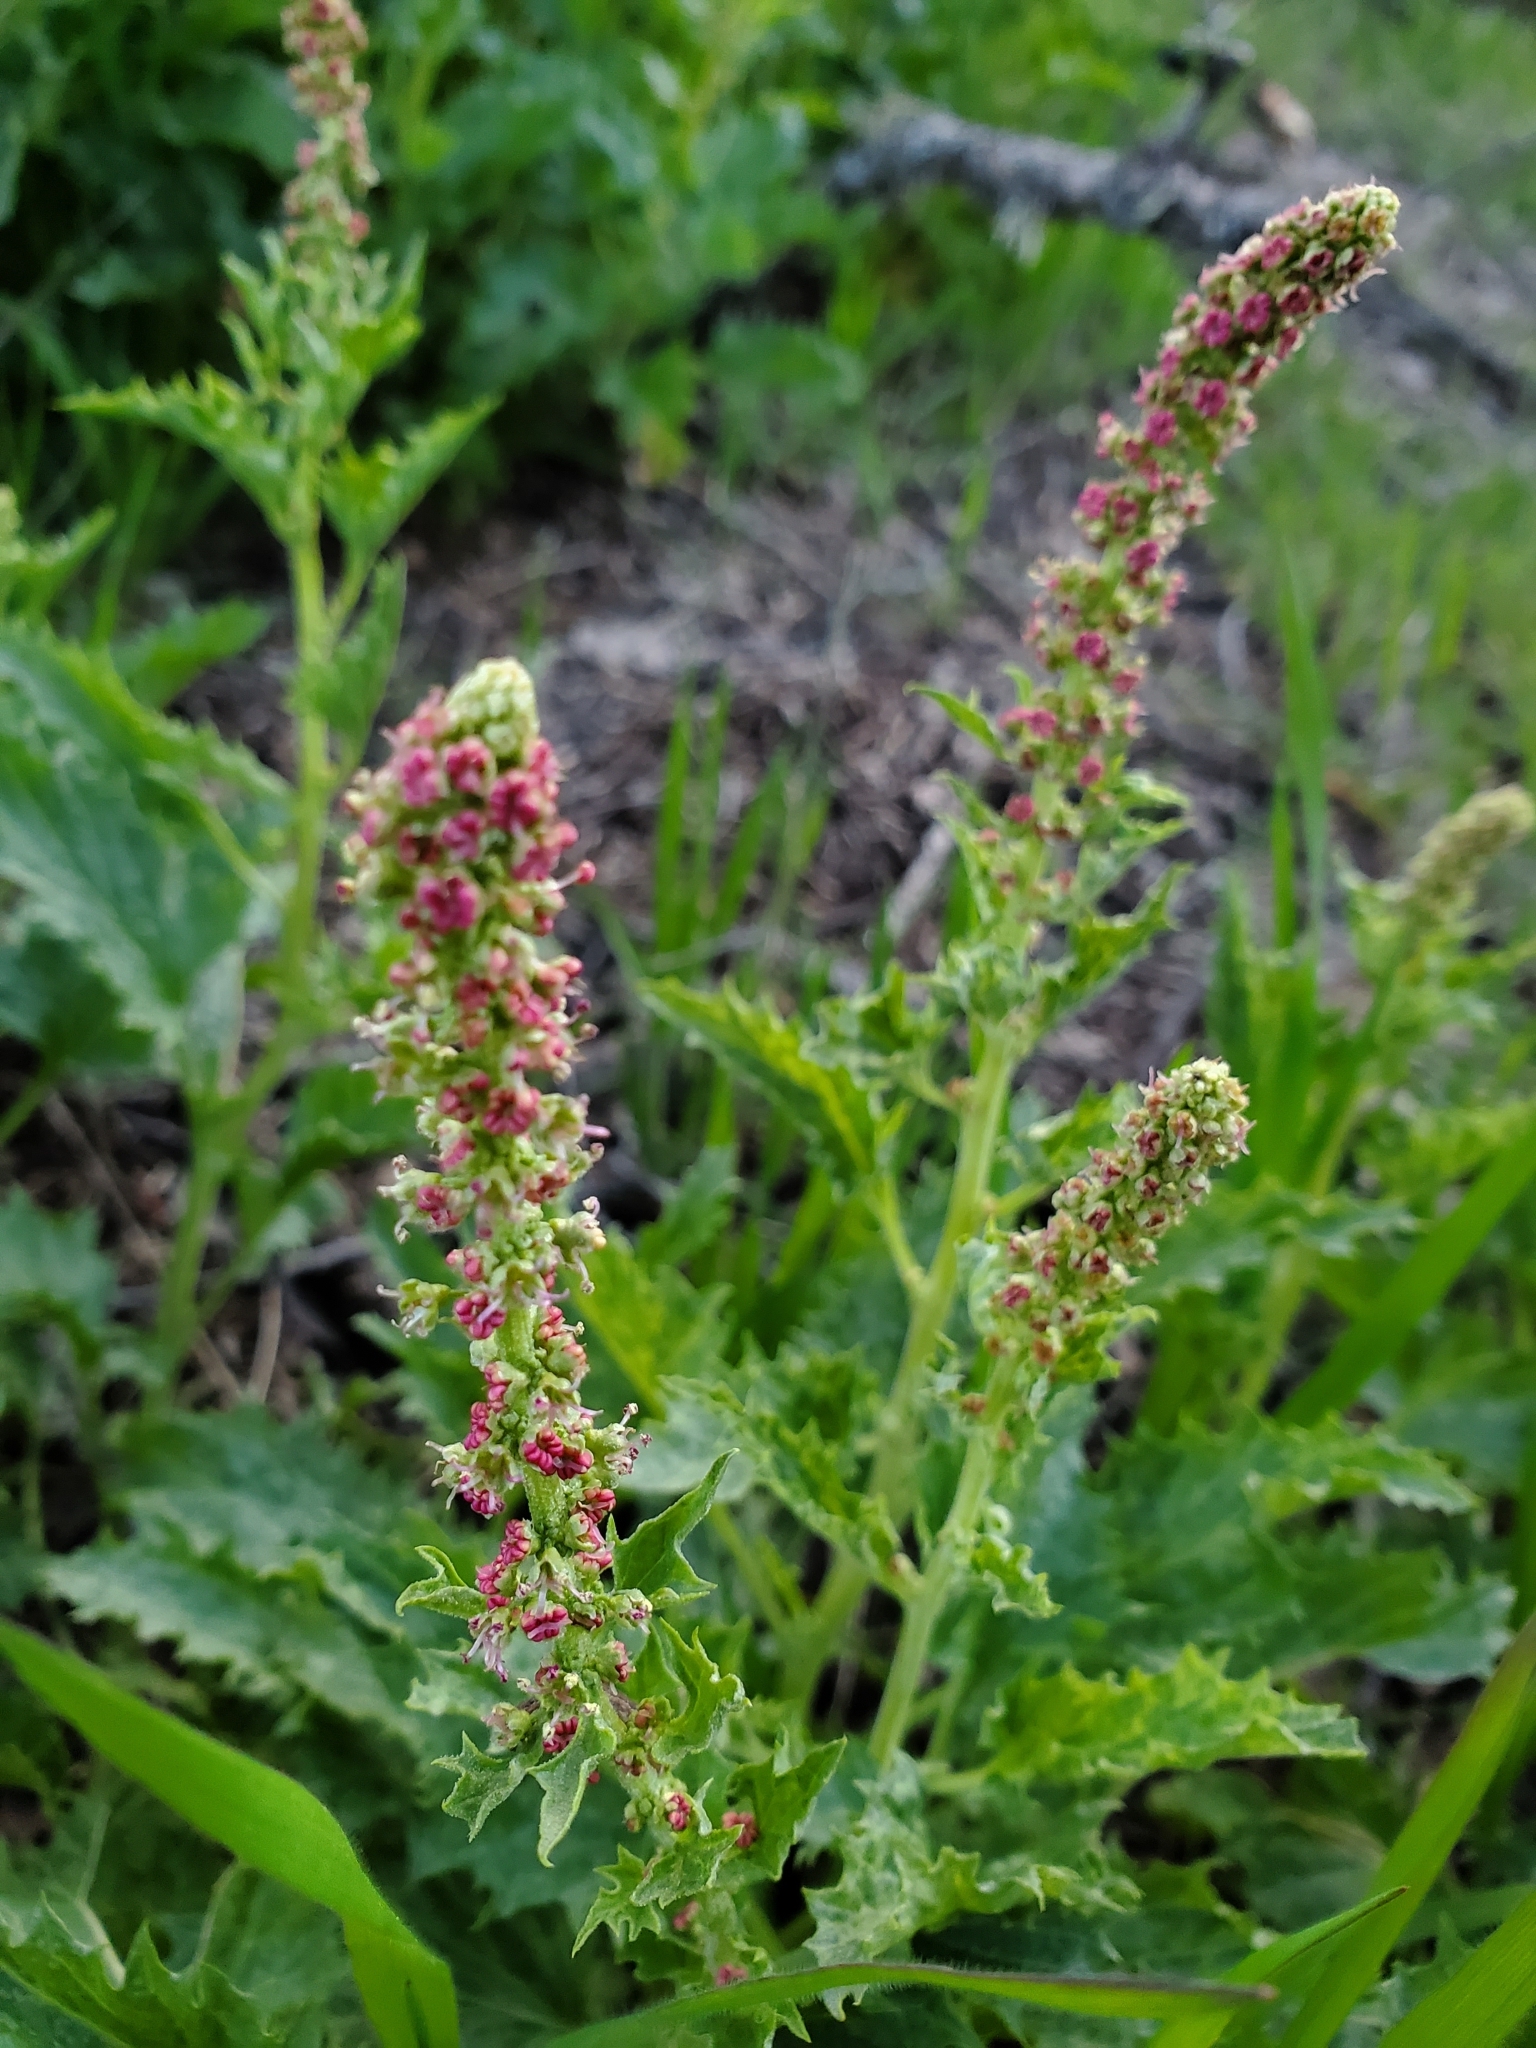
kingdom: Plantae
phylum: Tracheophyta
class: Magnoliopsida
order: Caryophyllales
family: Amaranthaceae
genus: Blitum
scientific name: Blitum californicum
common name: California goosefoot
